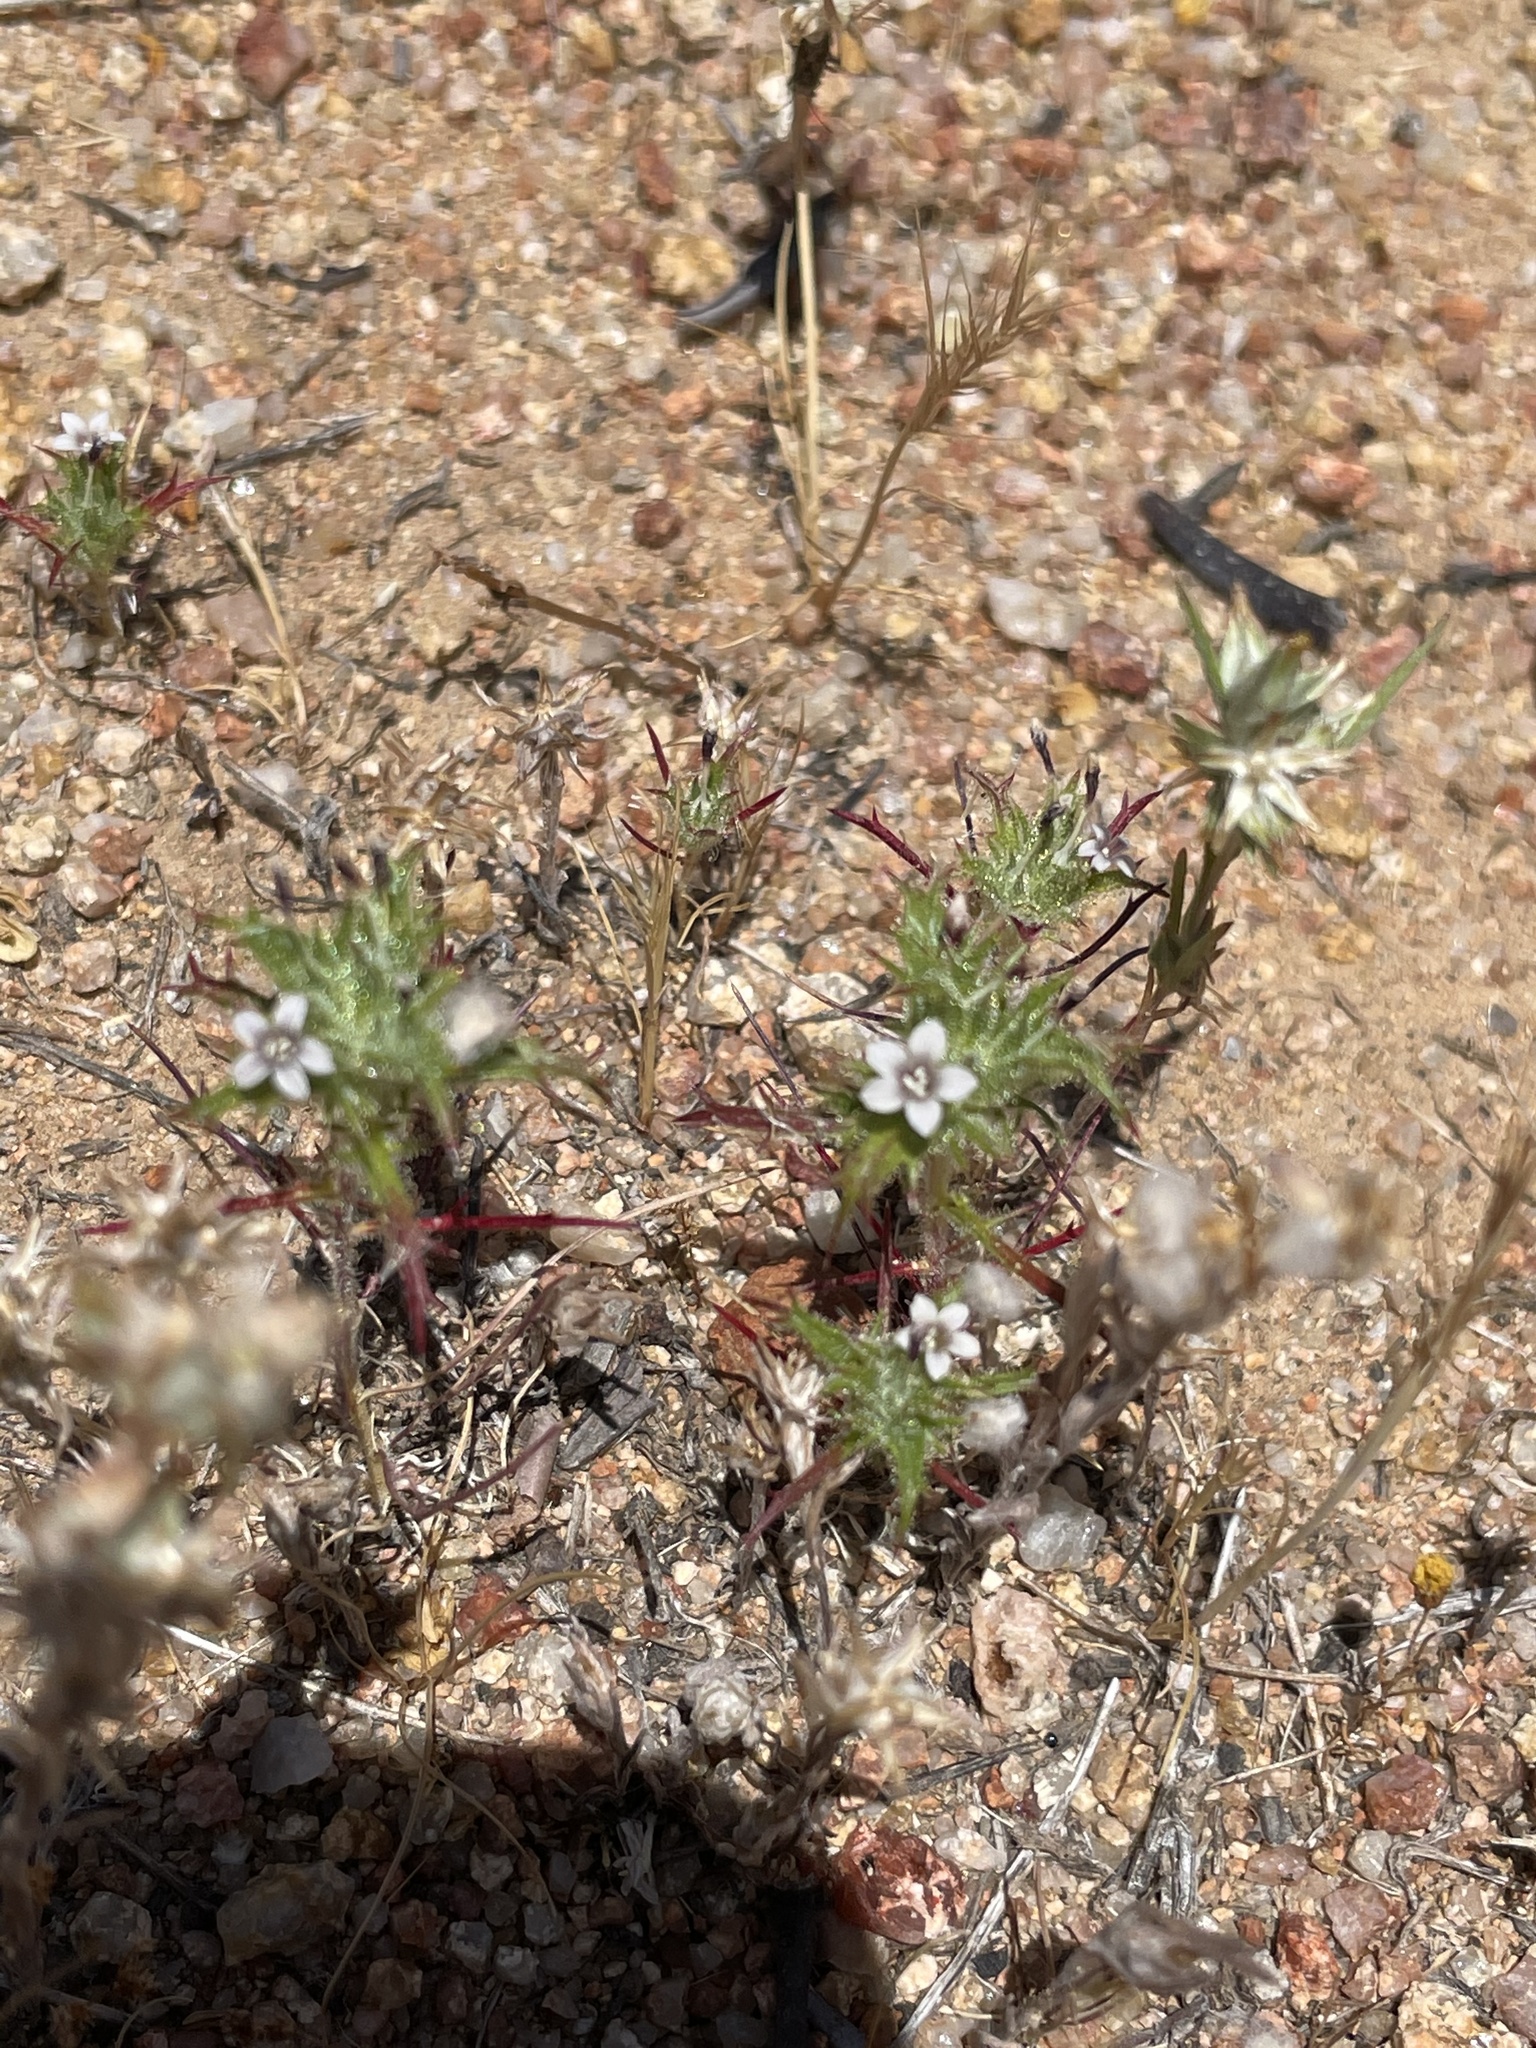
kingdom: Plantae
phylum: Tracheophyta
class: Magnoliopsida
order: Ericales
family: Polemoniaceae
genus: Navarretia
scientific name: Navarretia atractyloides
